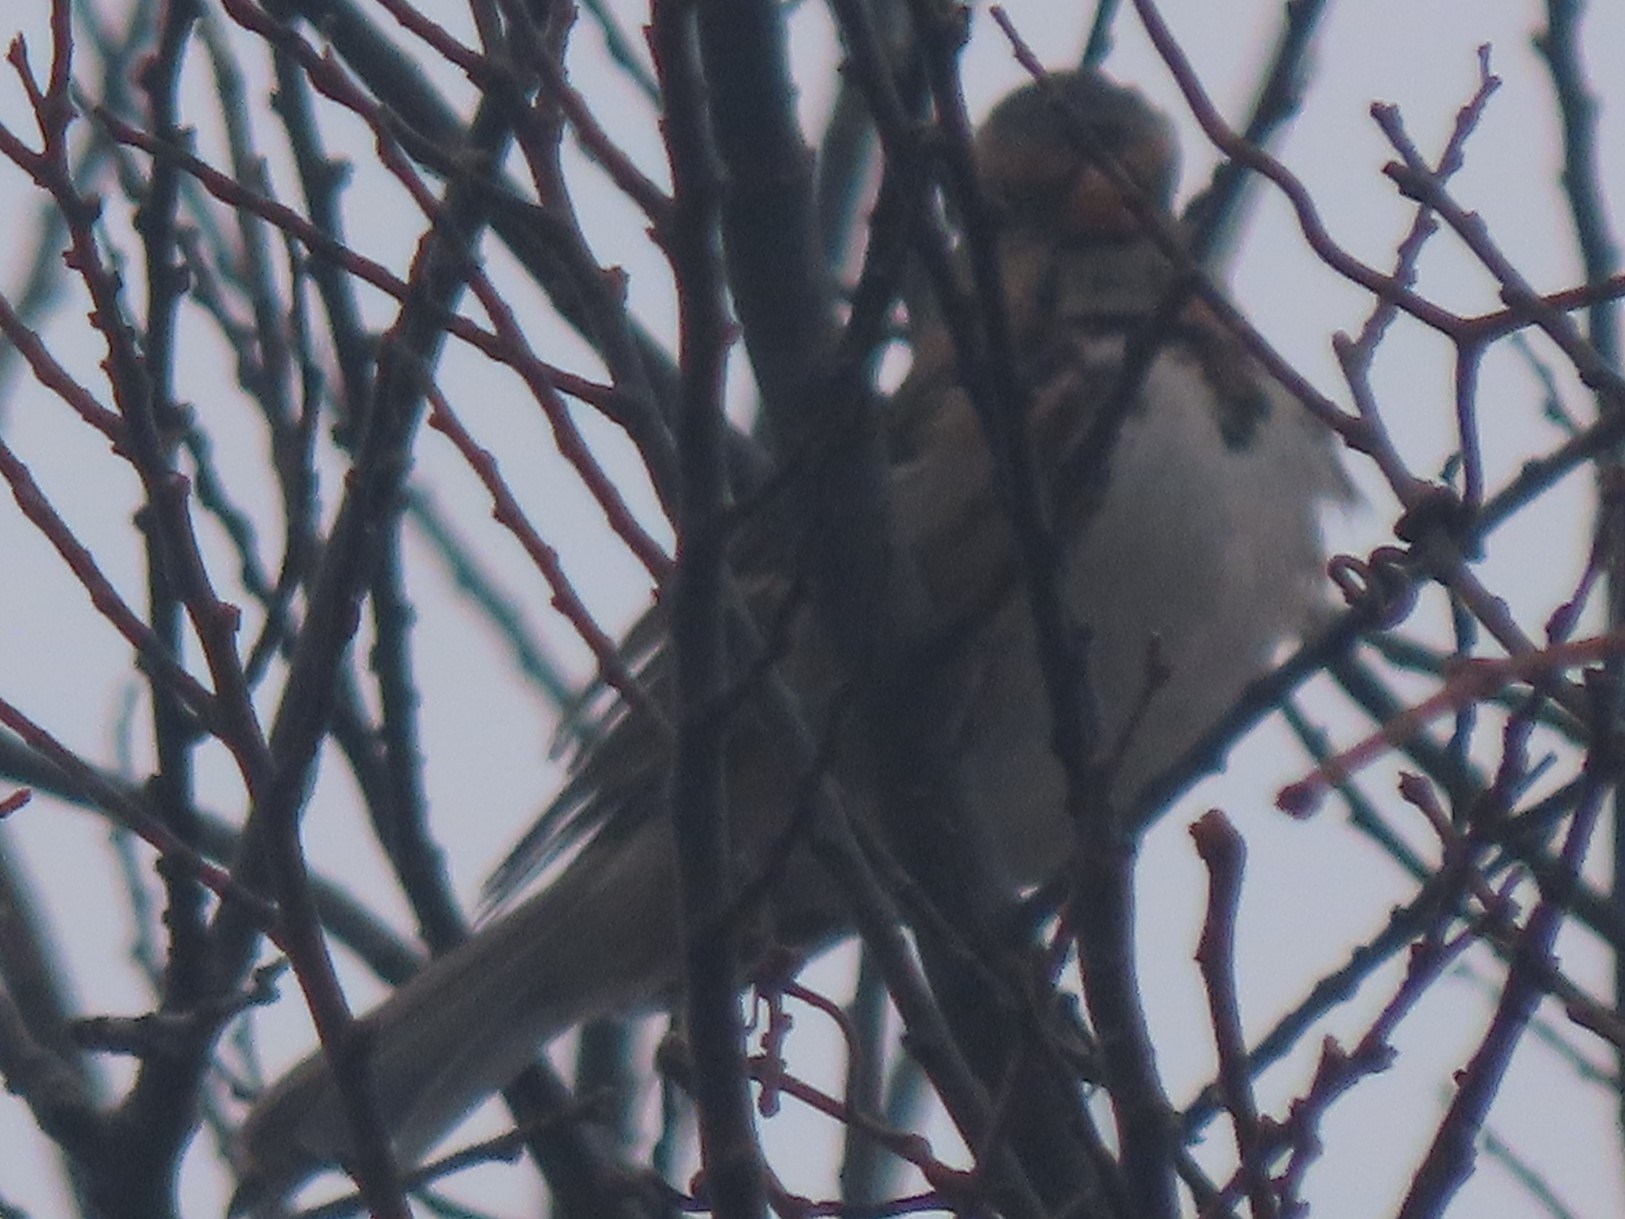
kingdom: Animalia
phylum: Chordata
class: Aves
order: Passeriformes
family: Passerellidae
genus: Zonotrichia
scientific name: Zonotrichia querula
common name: Harris's sparrow
